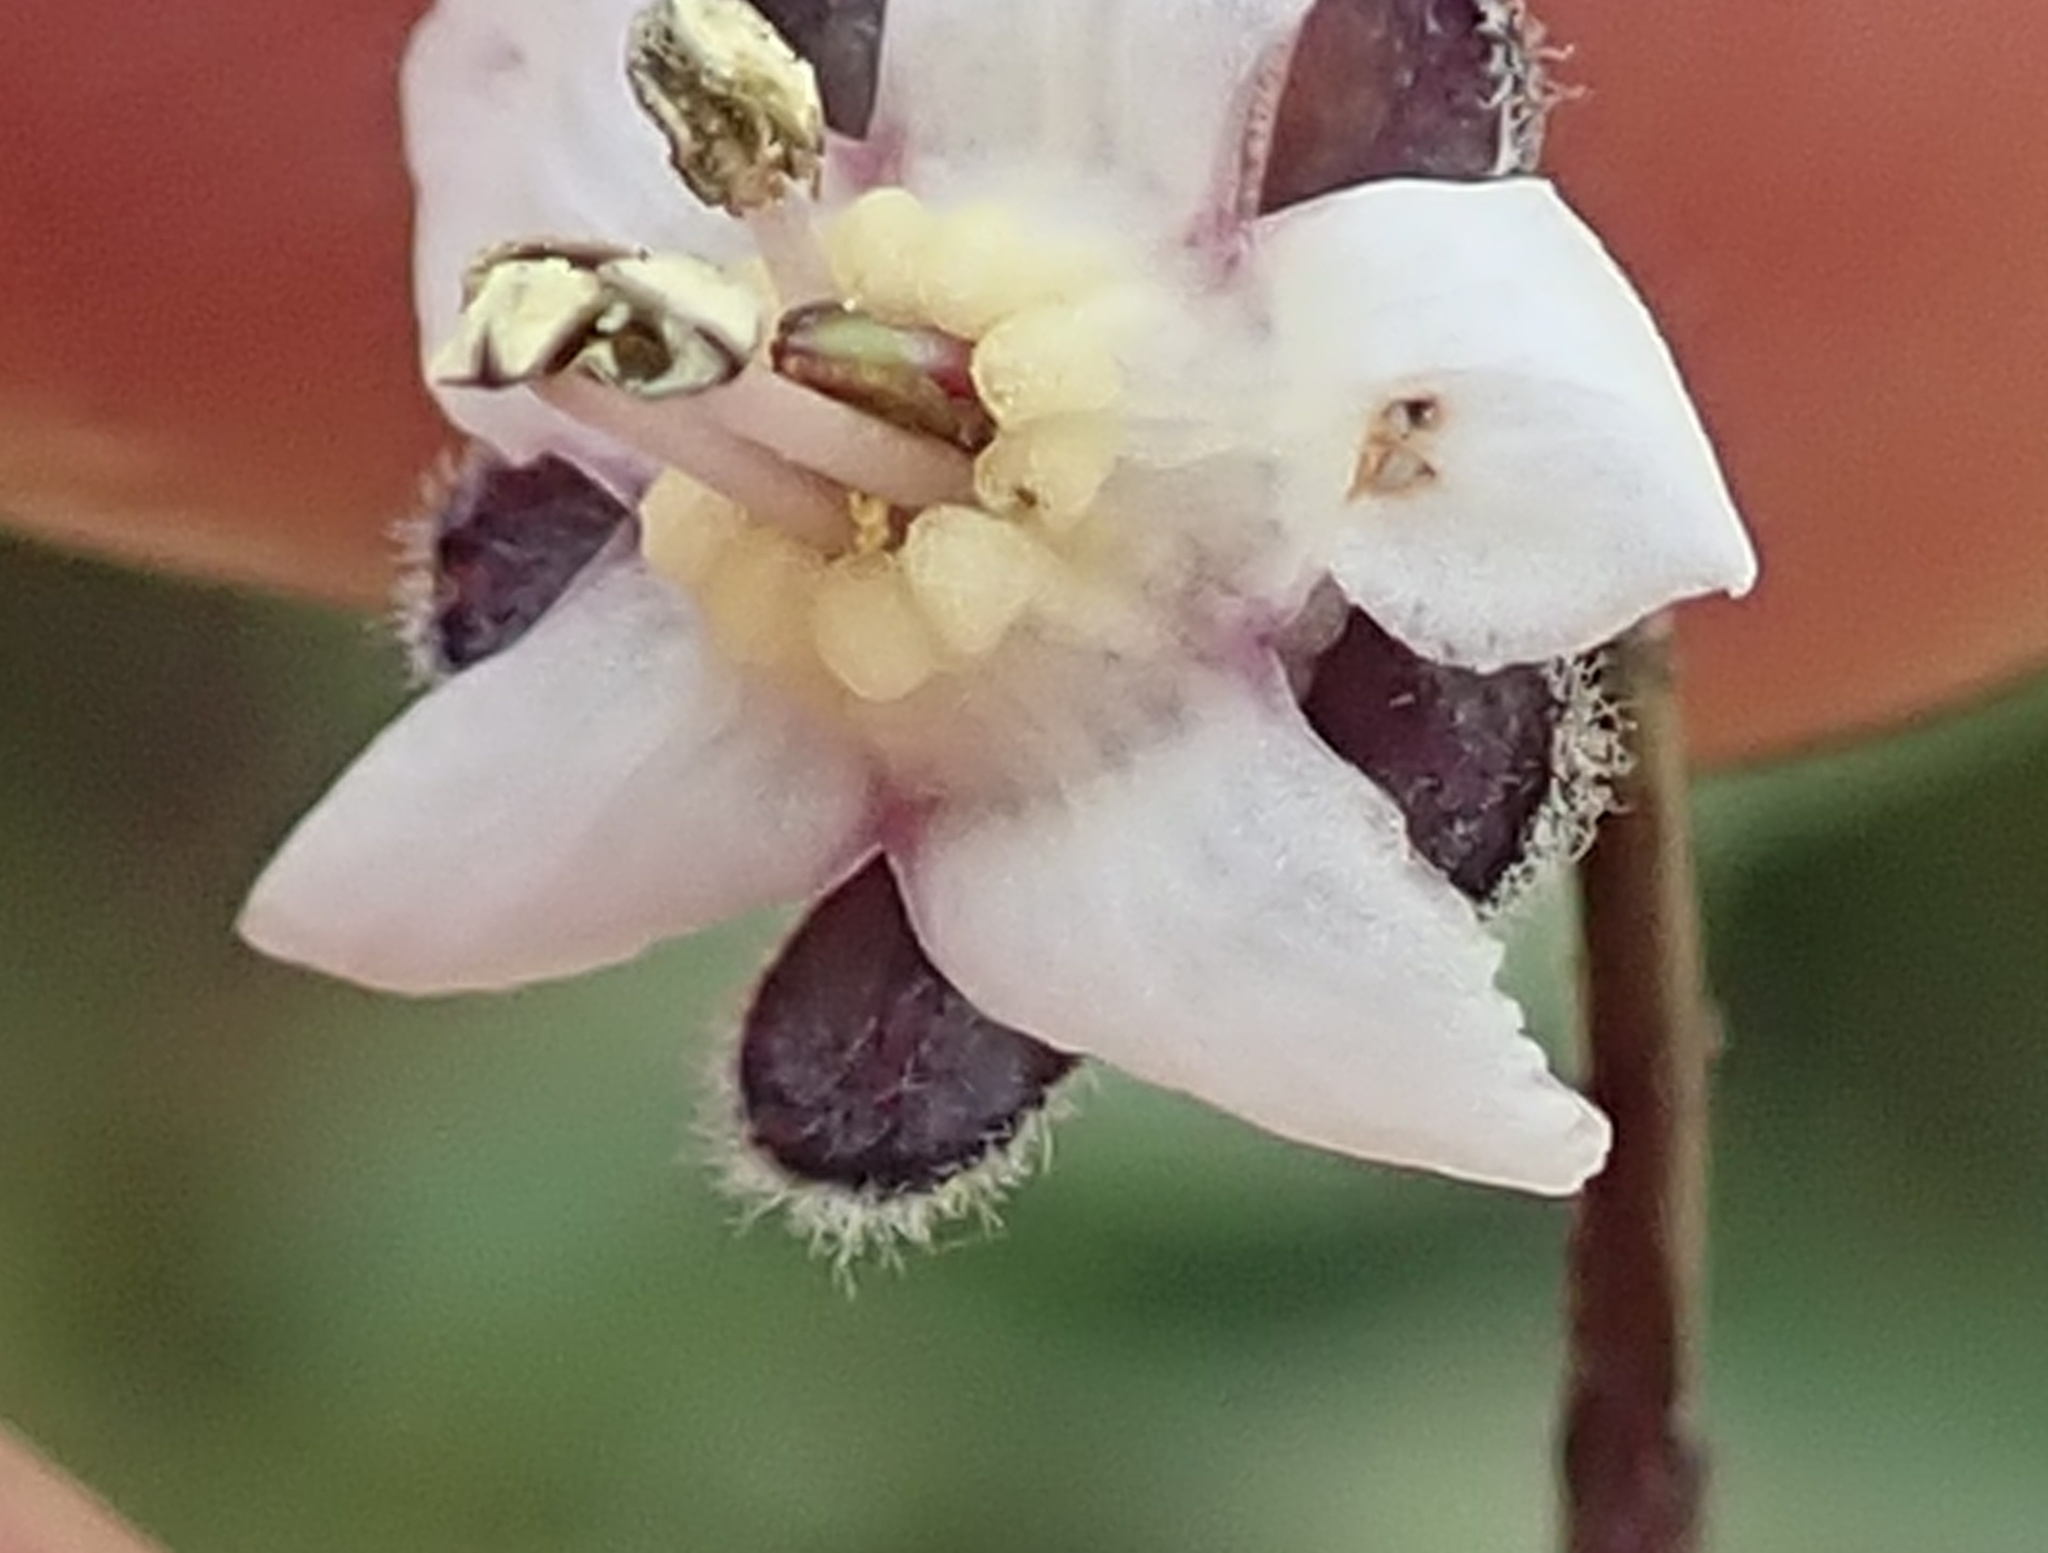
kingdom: Plantae
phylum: Tracheophyta
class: Magnoliopsida
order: Boraginales
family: Boraginaceae
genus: Afrotysonia
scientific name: Afrotysonia glochidiata
